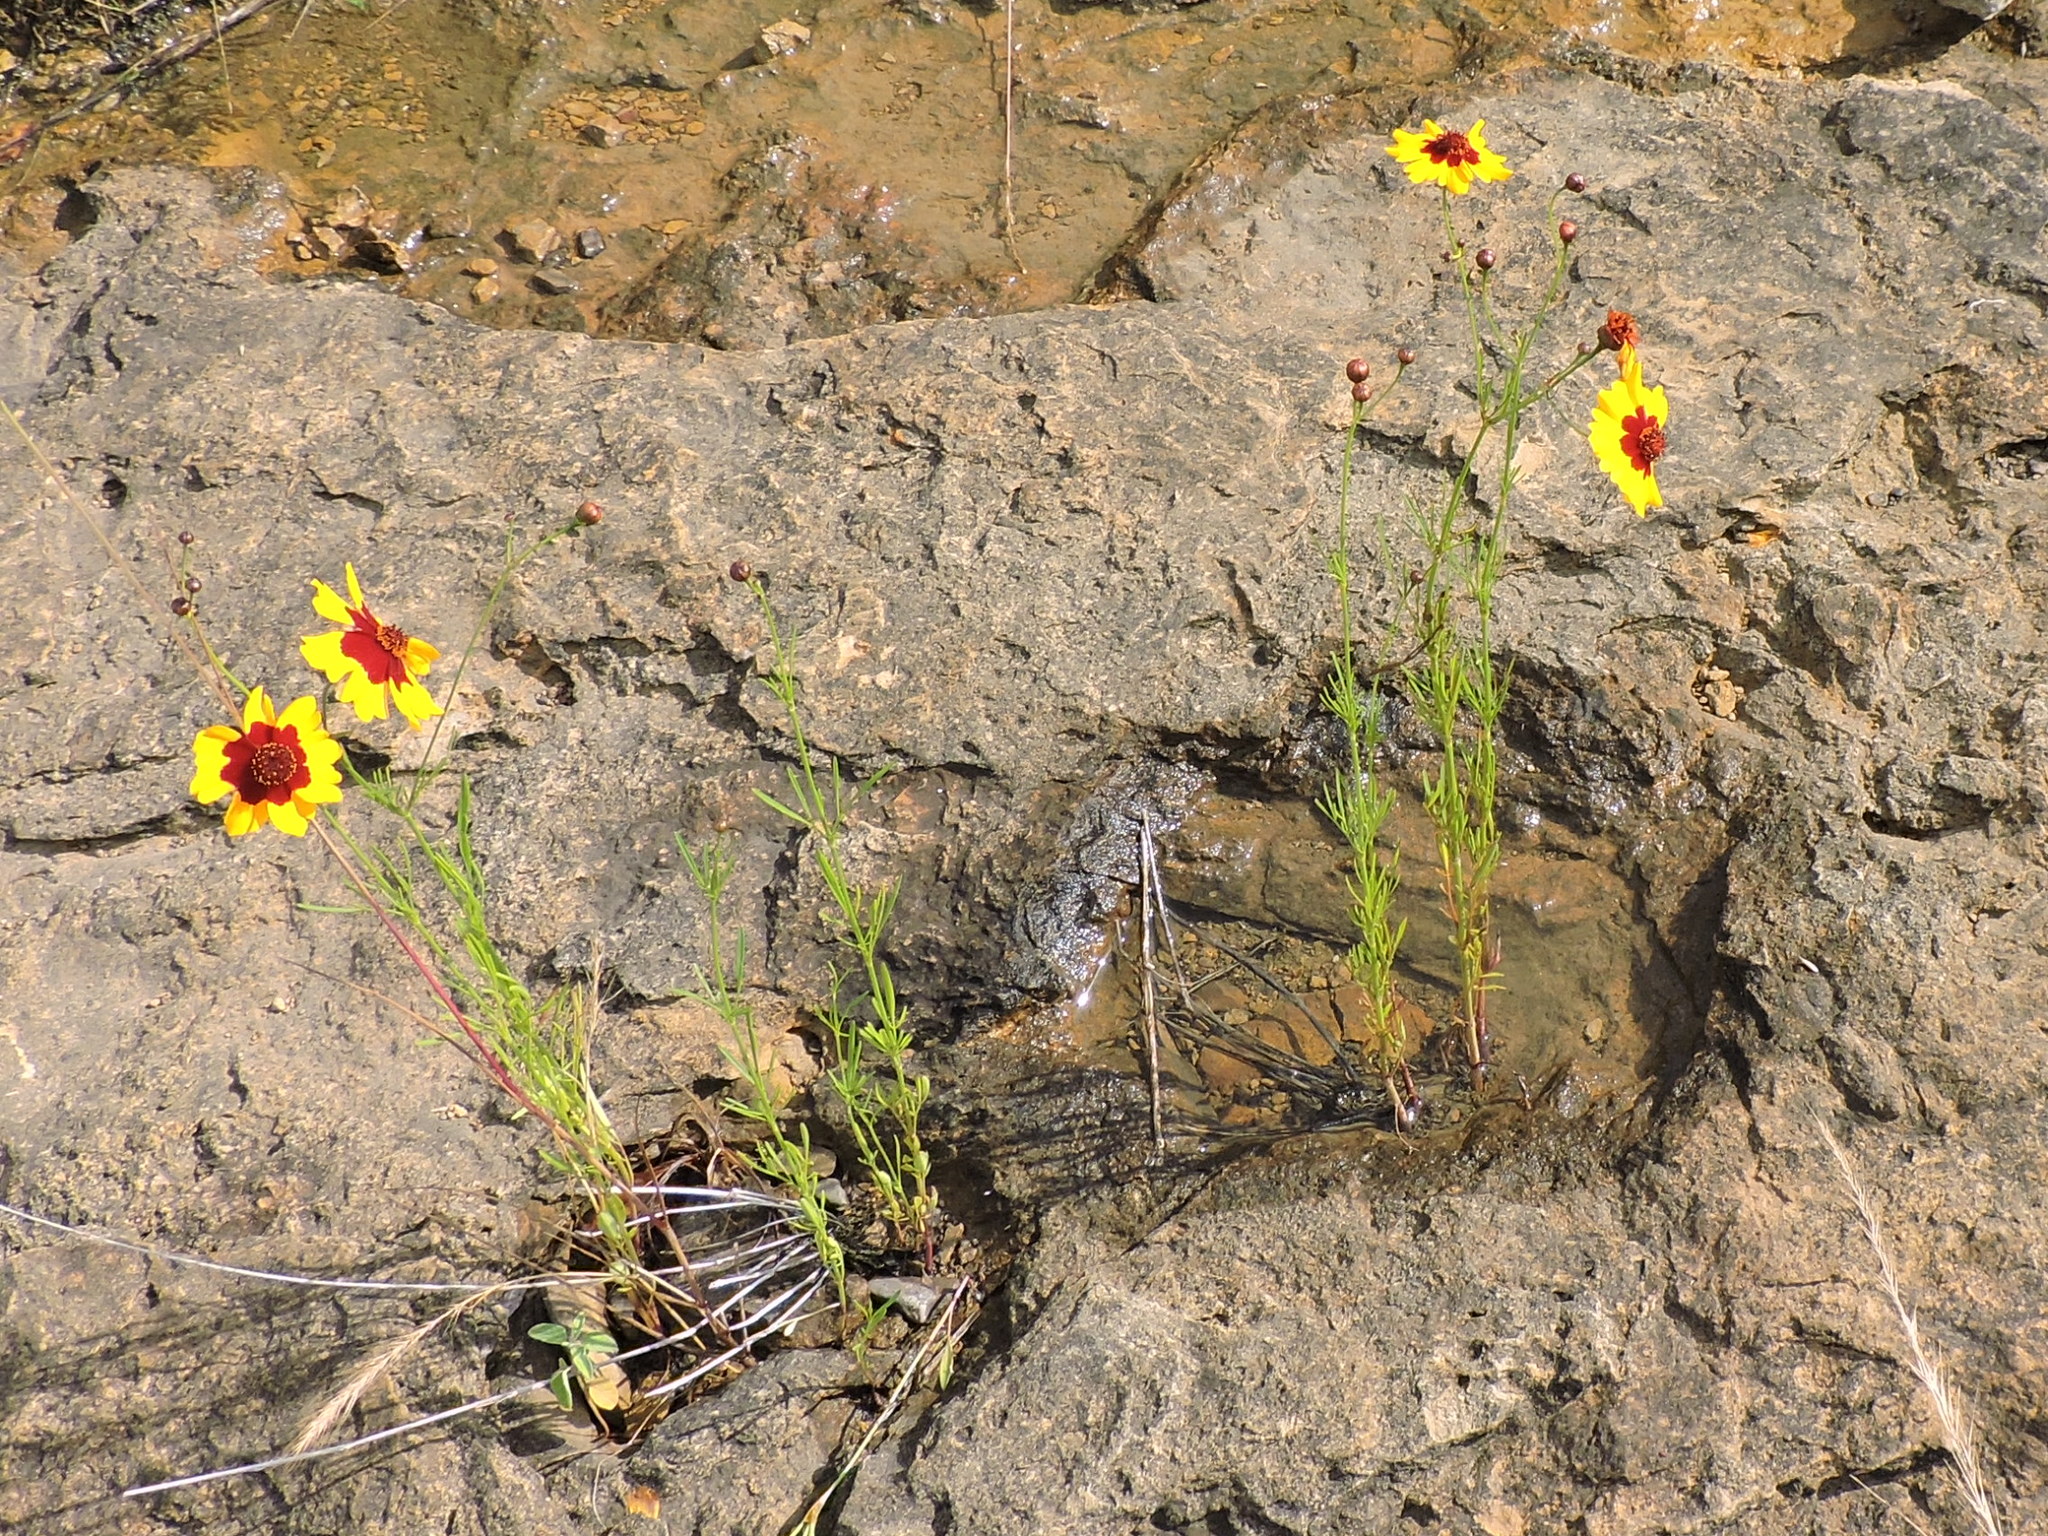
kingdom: Plantae
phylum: Tracheophyta
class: Magnoliopsida
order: Asterales
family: Asteraceae
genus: Coreopsis
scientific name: Coreopsis tinctoria
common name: Garden tickseed
